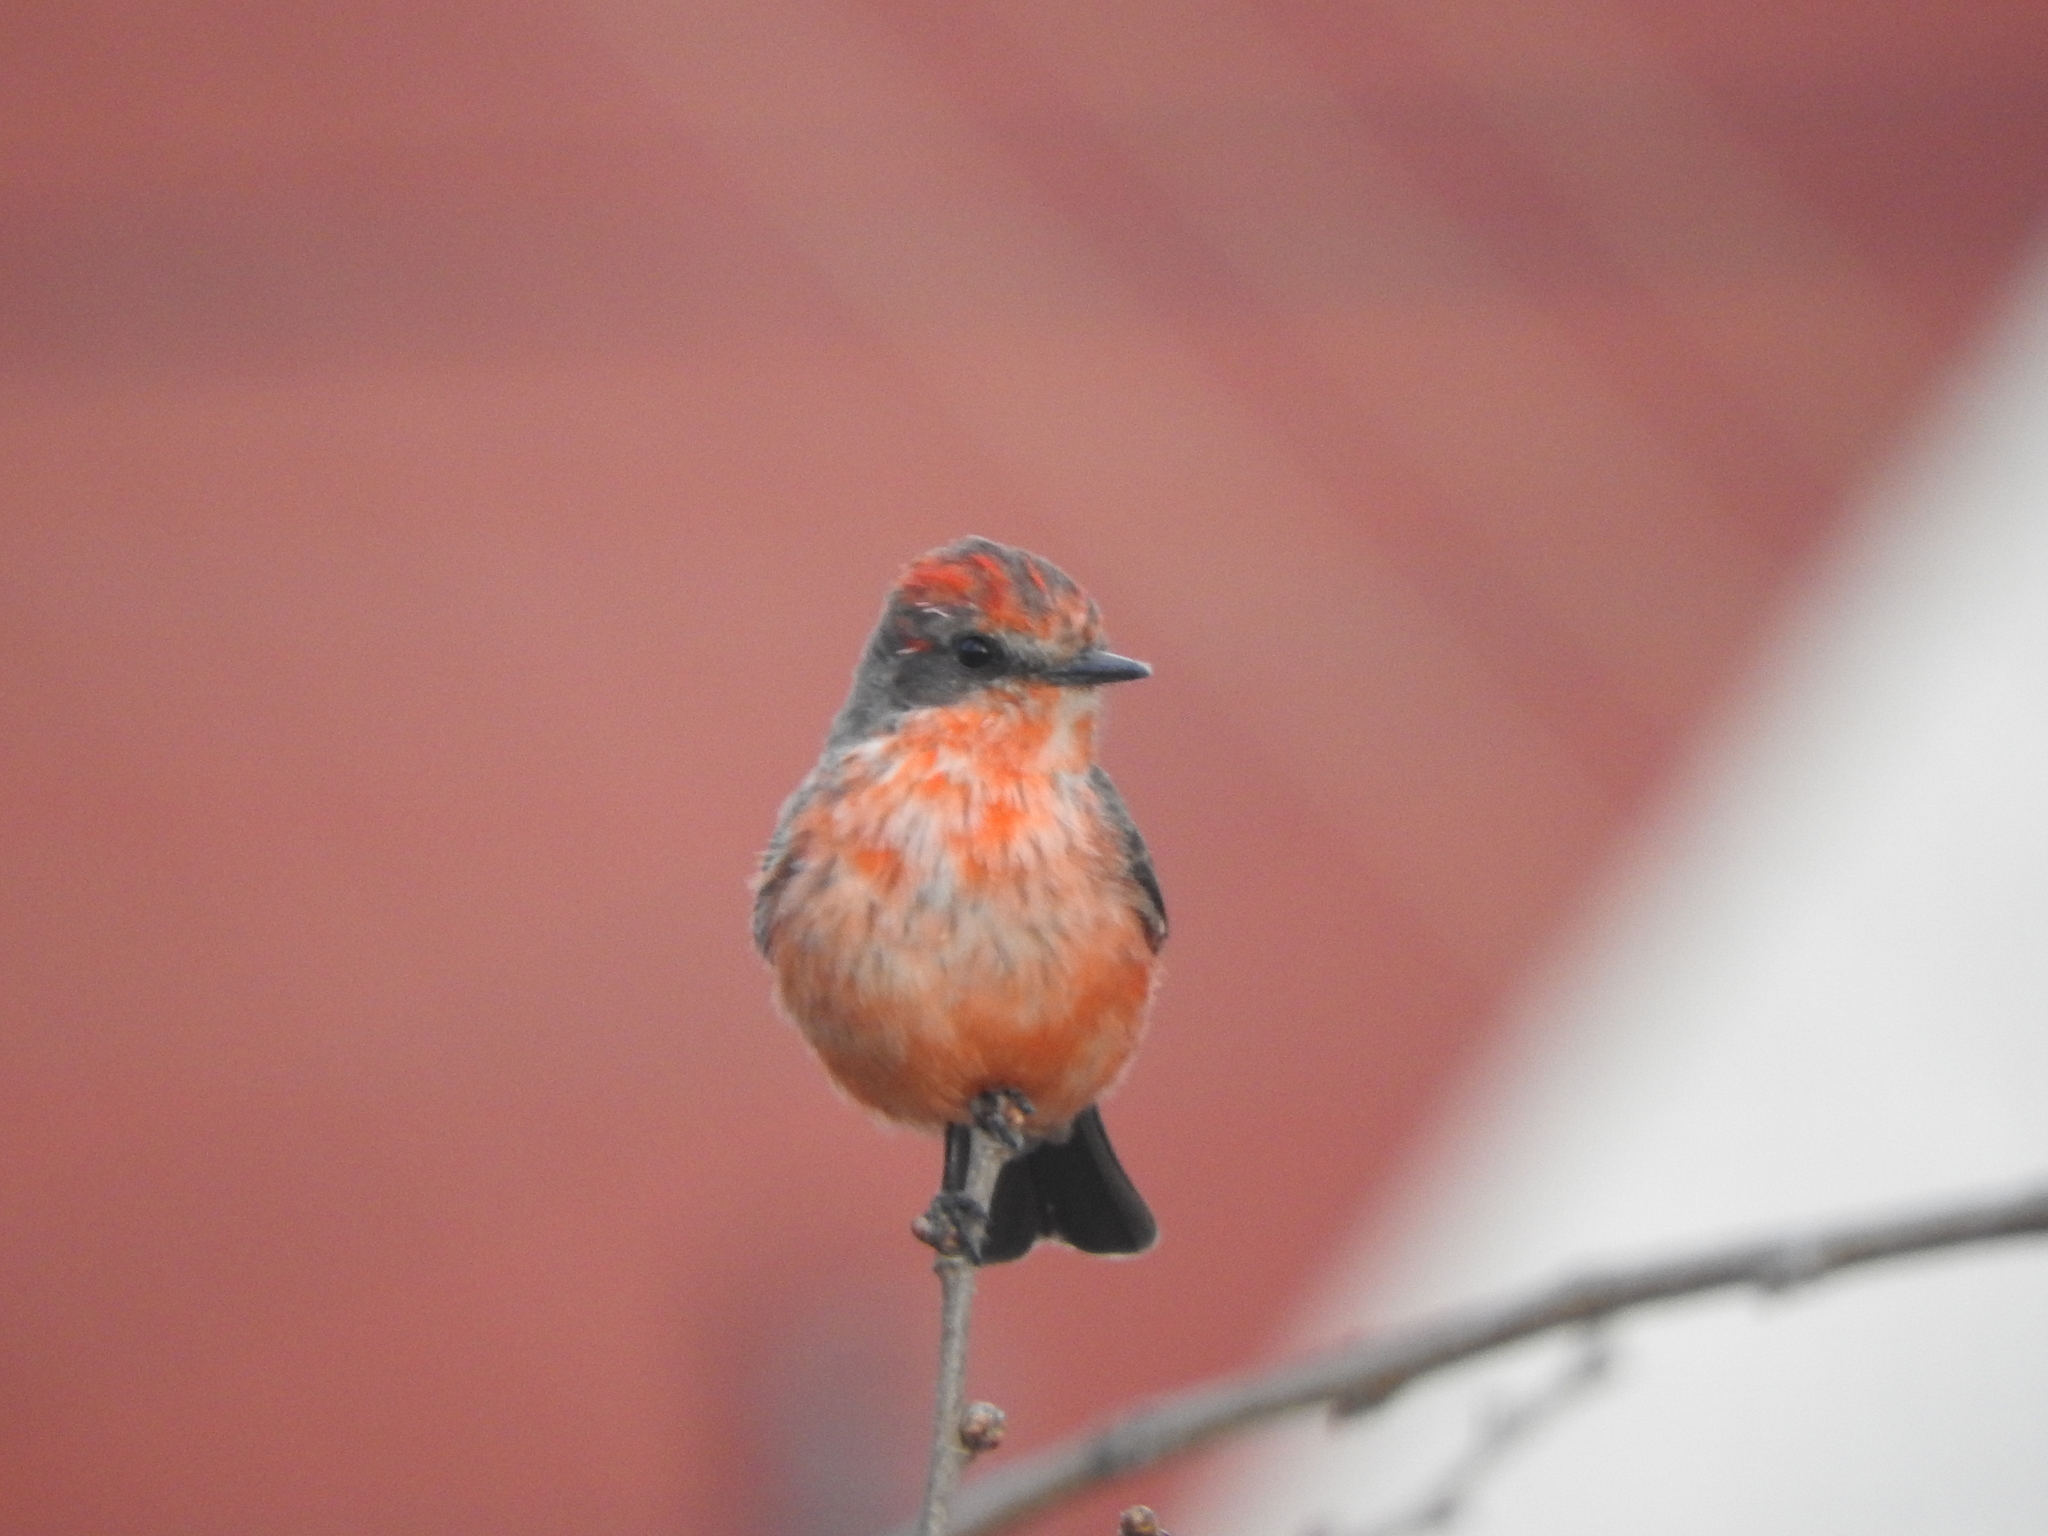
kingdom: Animalia
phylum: Chordata
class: Aves
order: Passeriformes
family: Tyrannidae
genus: Pyrocephalus
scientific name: Pyrocephalus rubinus
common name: Vermilion flycatcher
